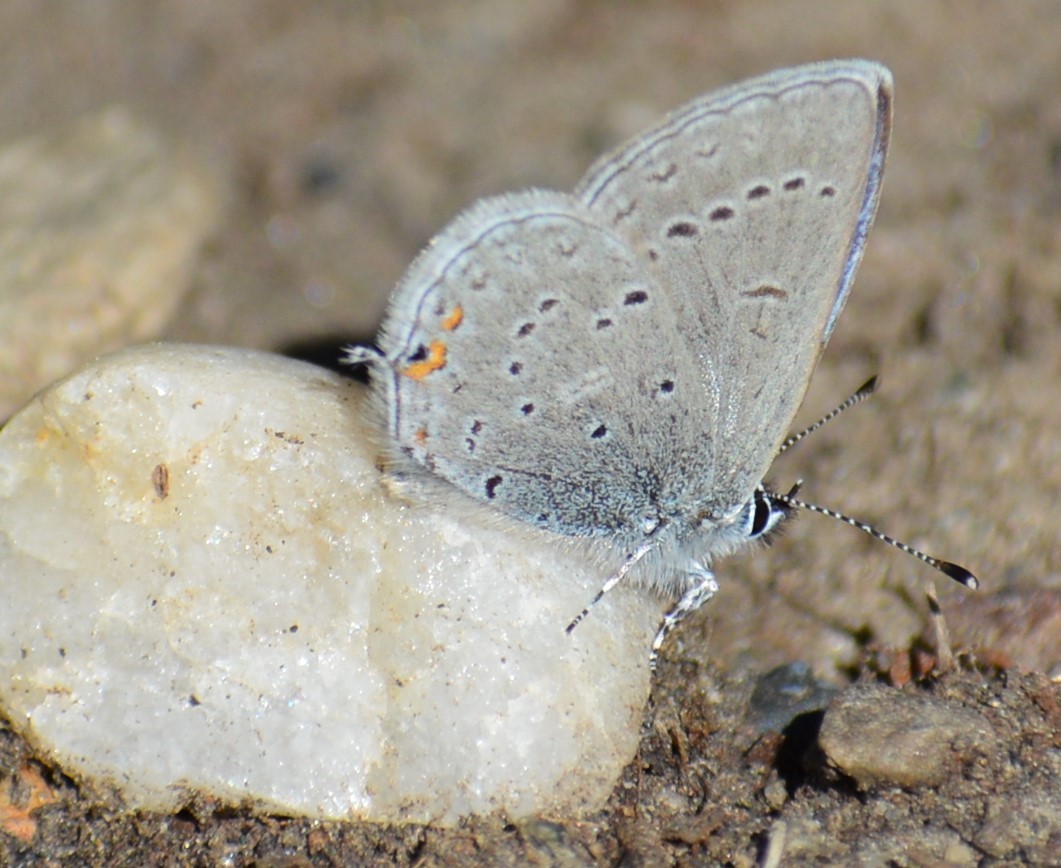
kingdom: Animalia
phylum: Arthropoda
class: Insecta
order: Lepidoptera
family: Lycaenidae
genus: Elkalyce
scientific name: Elkalyce amyntula
